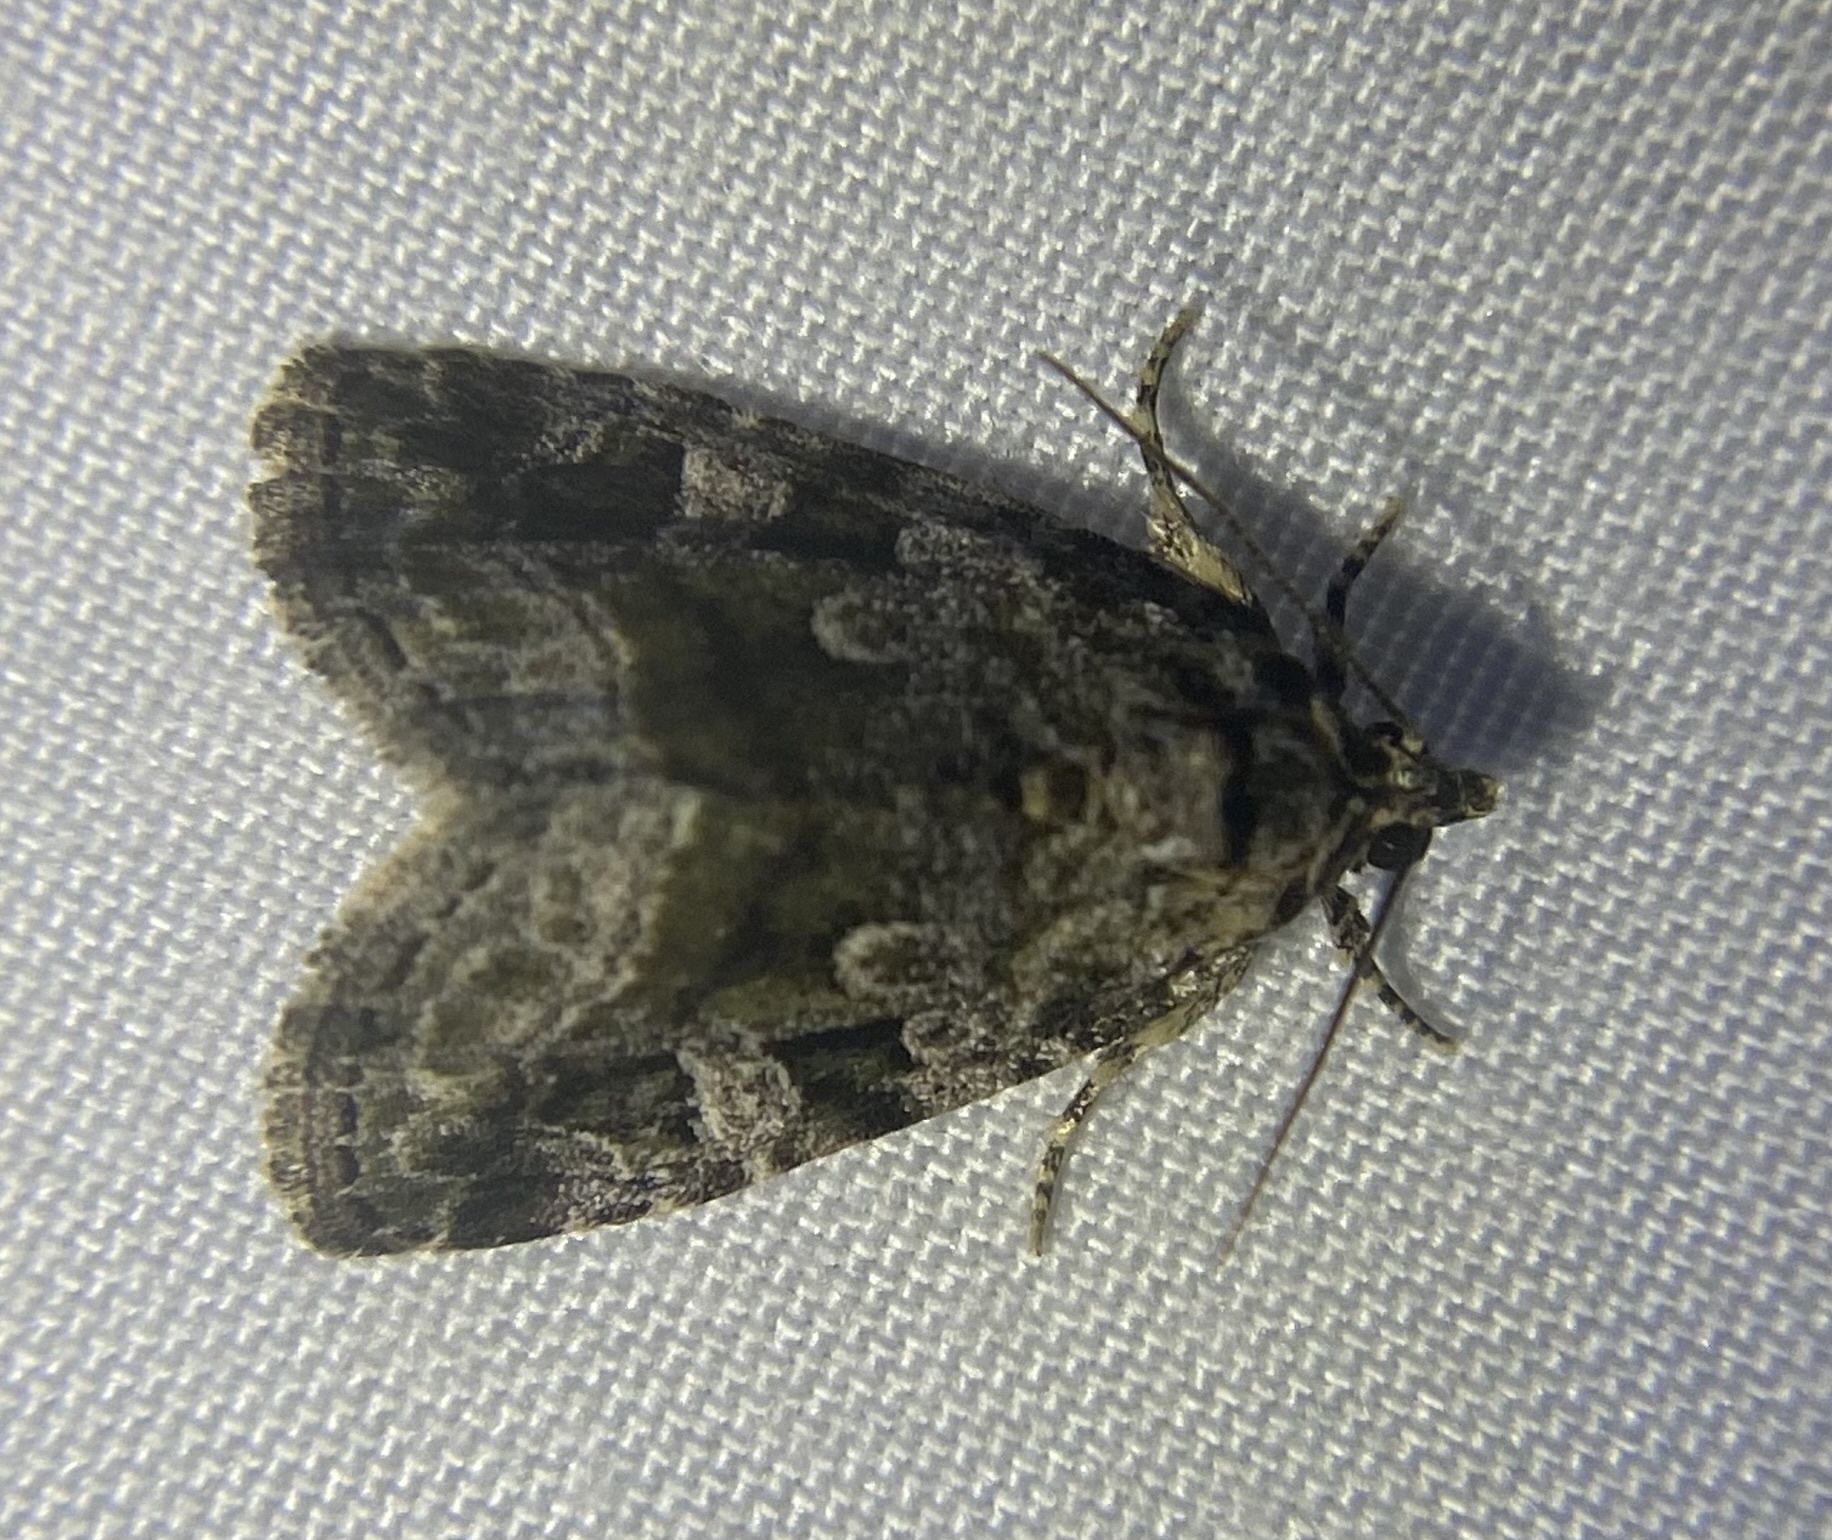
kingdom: Animalia
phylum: Arthropoda
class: Insecta
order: Lepidoptera
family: Noctuidae
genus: Protodeltote
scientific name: Protodeltote muscosula
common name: Large mossy glyph
